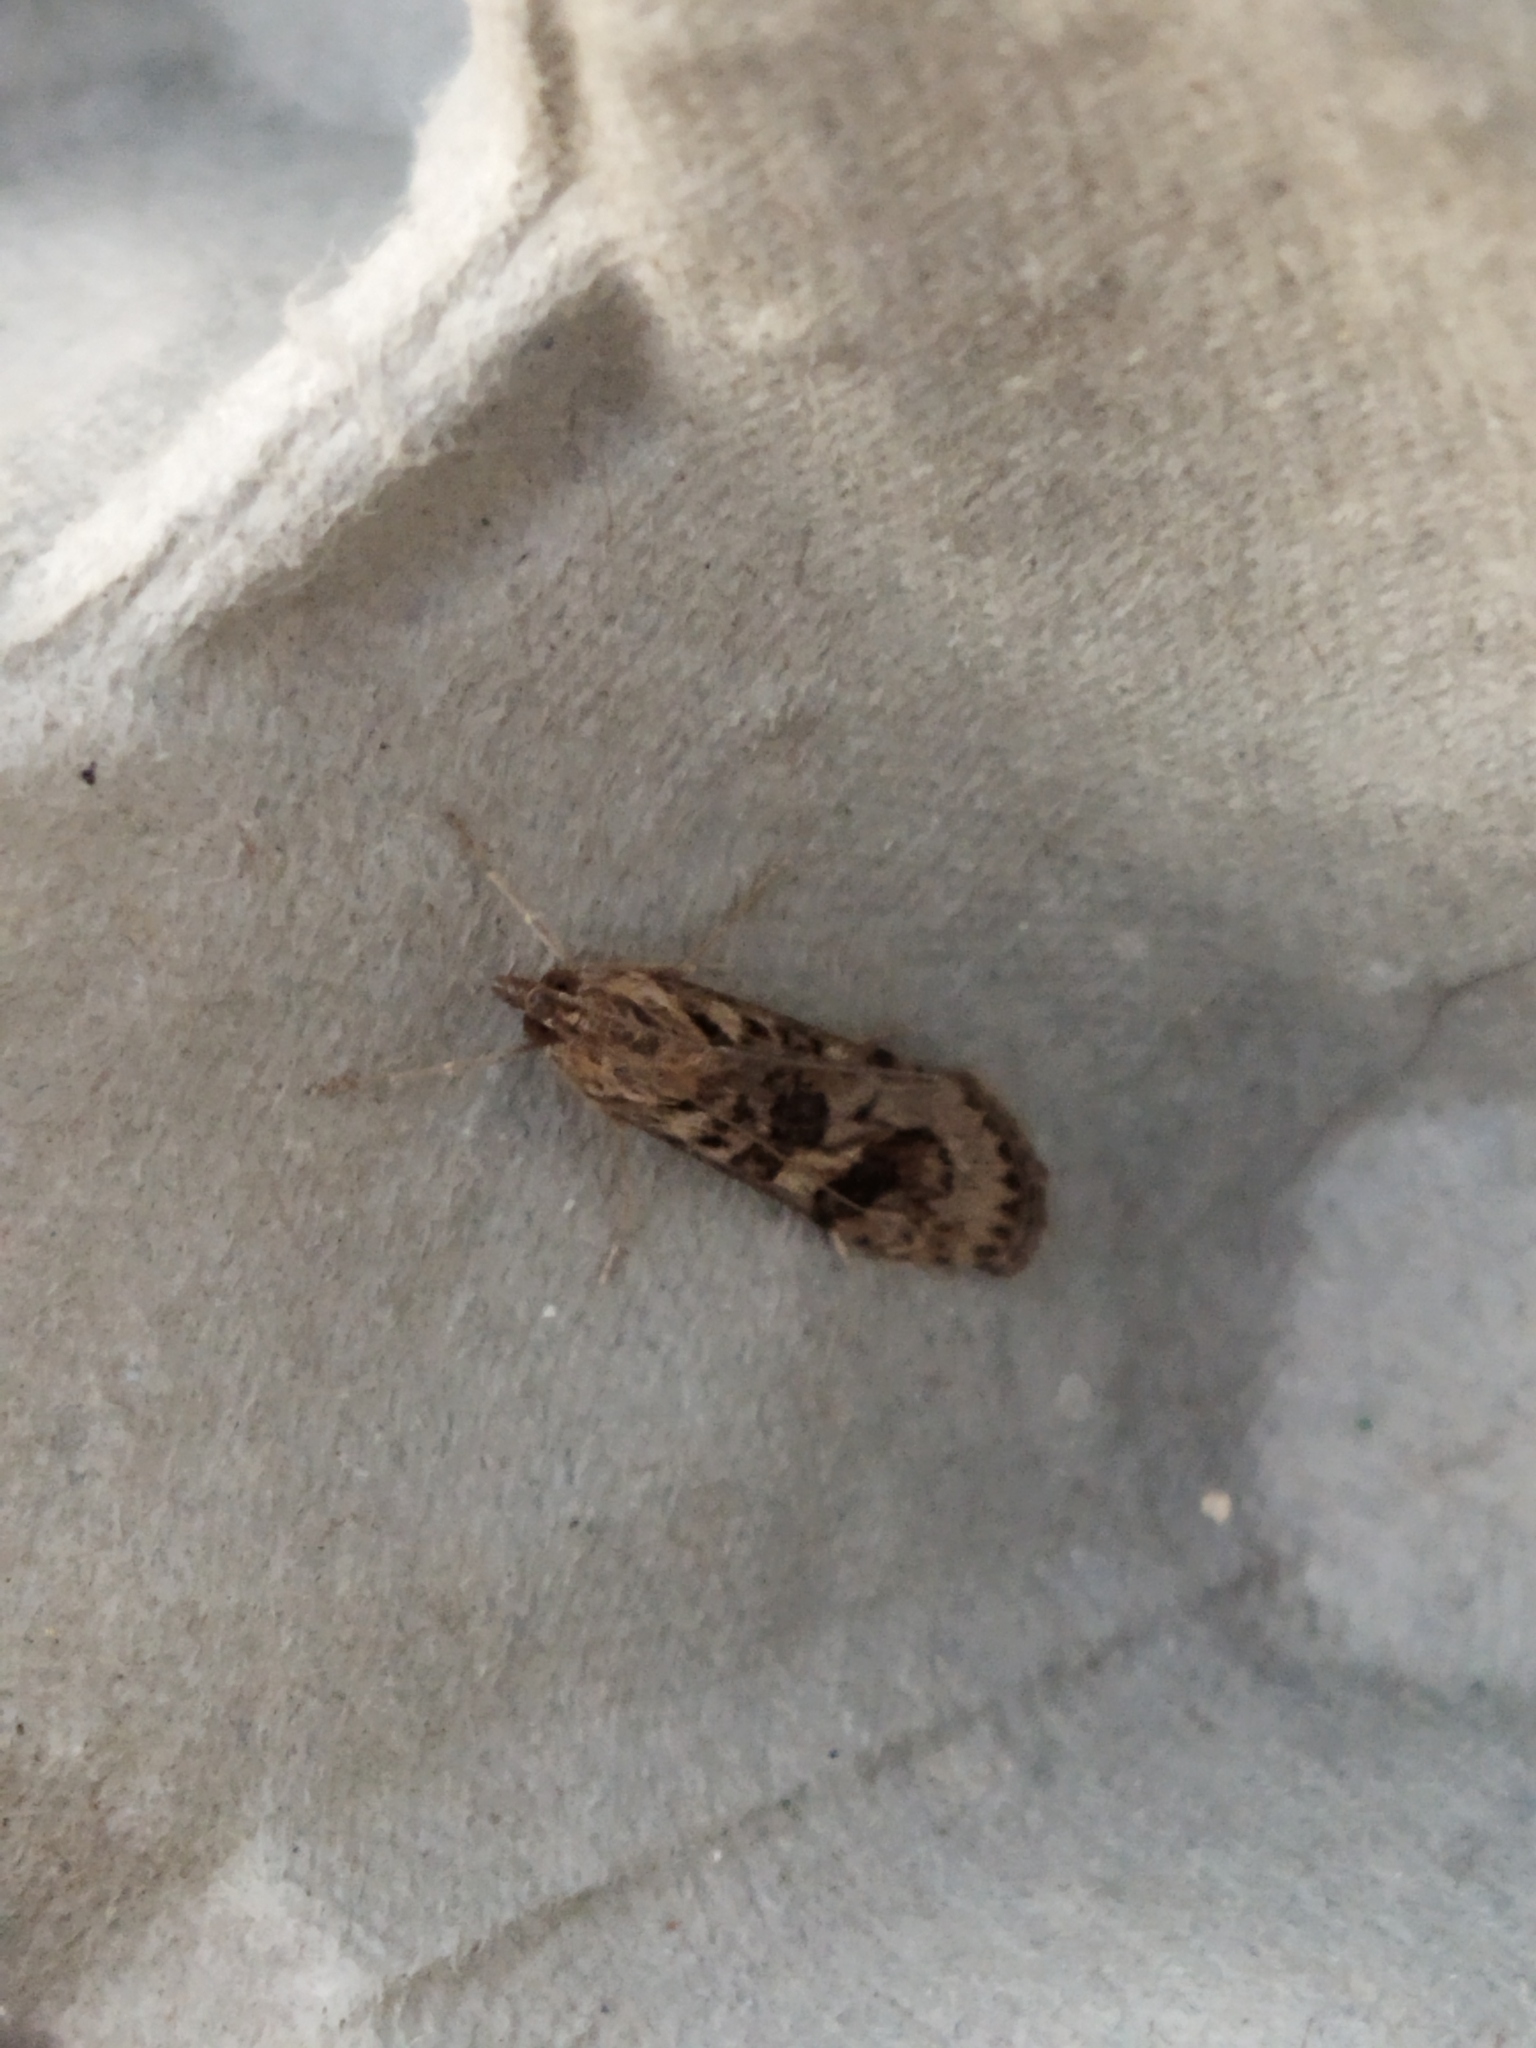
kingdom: Animalia
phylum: Arthropoda
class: Insecta
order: Lepidoptera
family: Crambidae
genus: Nomophila
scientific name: Nomophila noctuella
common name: Rush veneer
